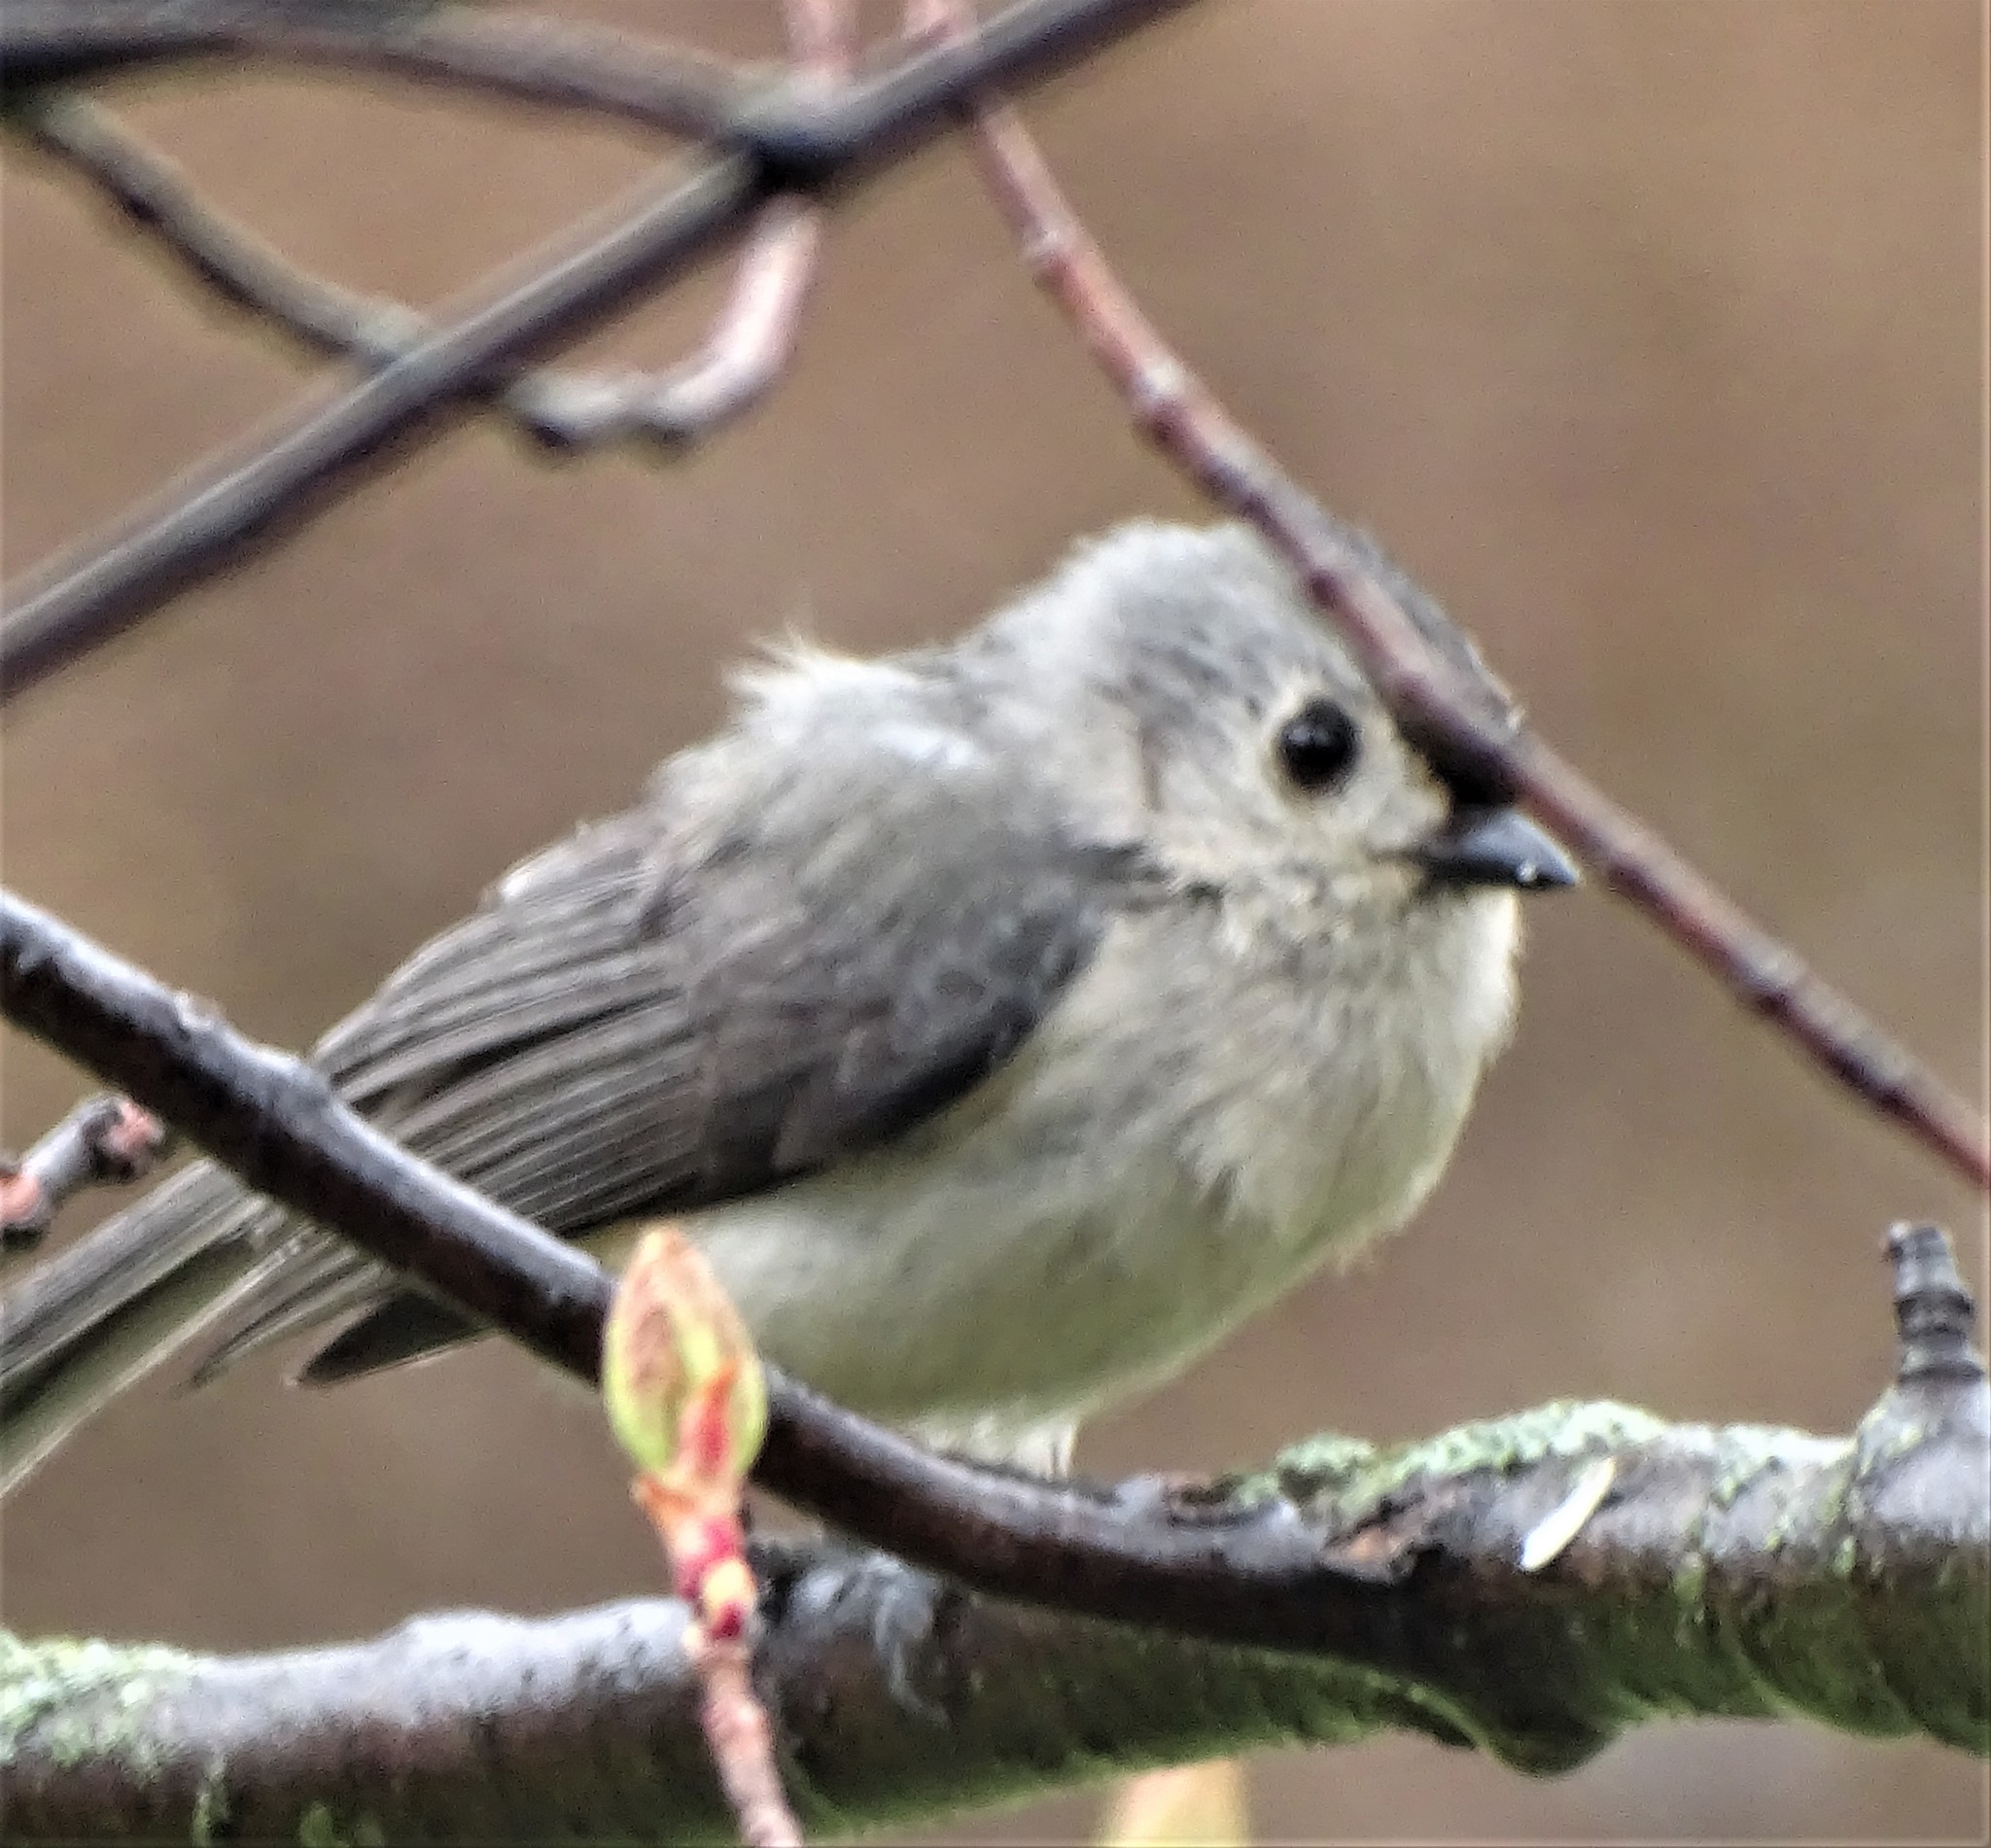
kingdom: Animalia
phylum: Chordata
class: Aves
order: Passeriformes
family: Paridae
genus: Baeolophus
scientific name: Baeolophus bicolor
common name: Tufted titmouse
